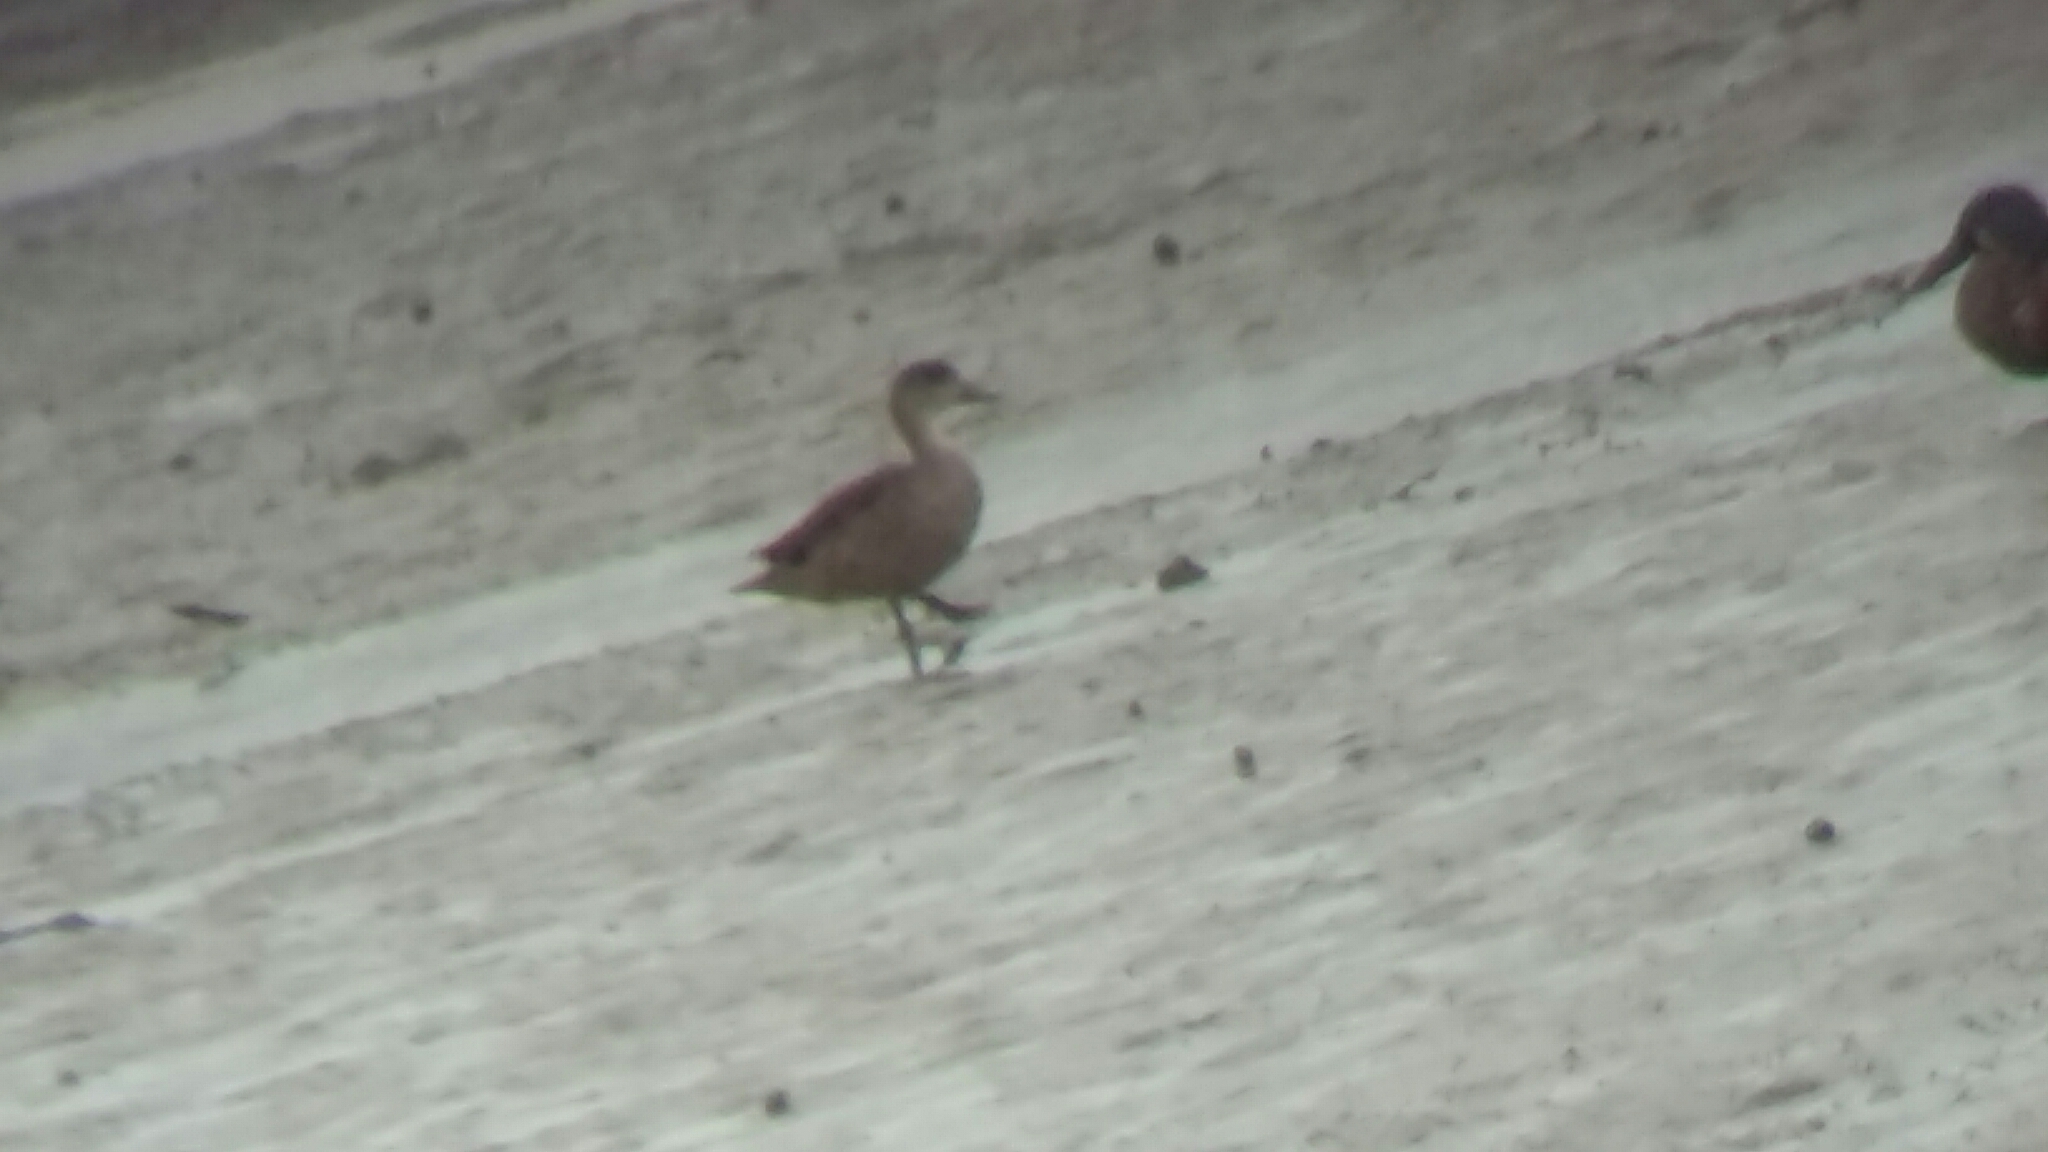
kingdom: Animalia
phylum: Chordata
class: Aves
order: Anseriformes
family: Anatidae
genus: Anas
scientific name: Anas gracilis
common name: Grey teal
